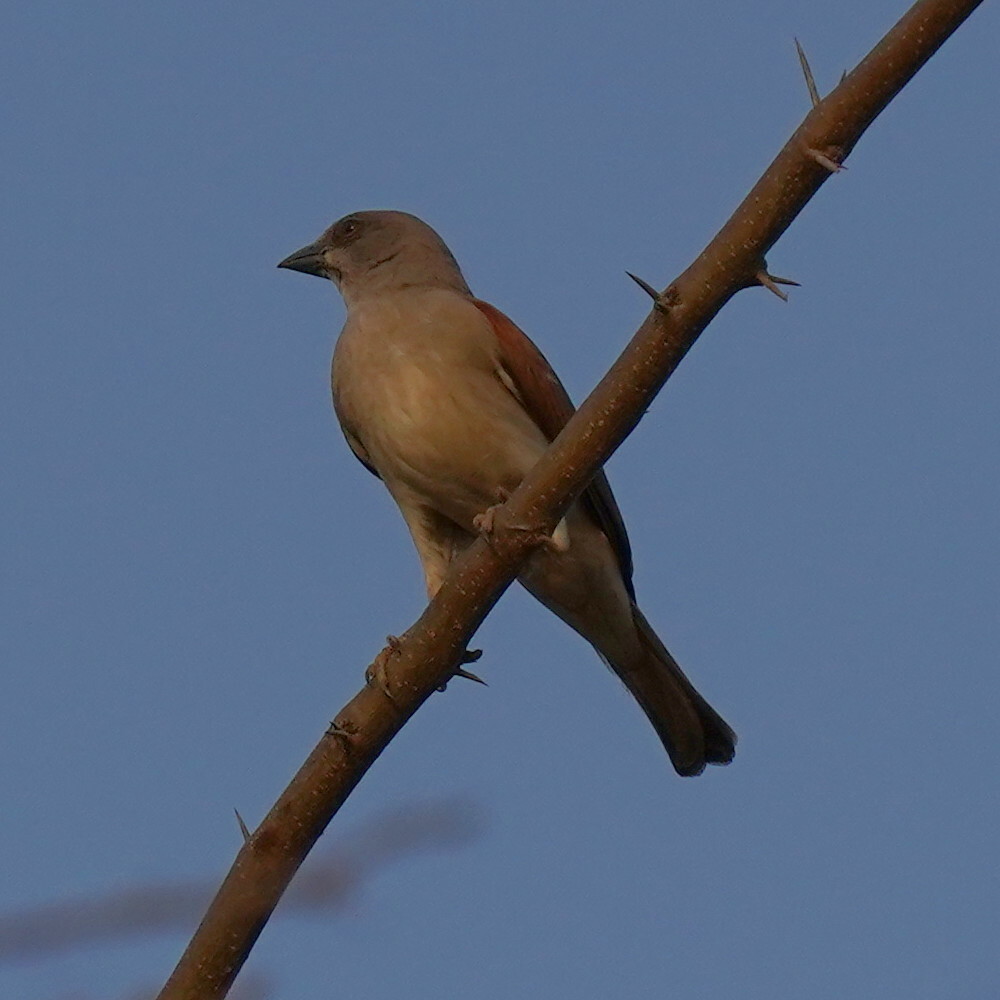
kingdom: Animalia
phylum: Chordata
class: Aves
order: Passeriformes
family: Passeridae
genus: Passer
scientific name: Passer griseus
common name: Northern grey-headed sparrow
